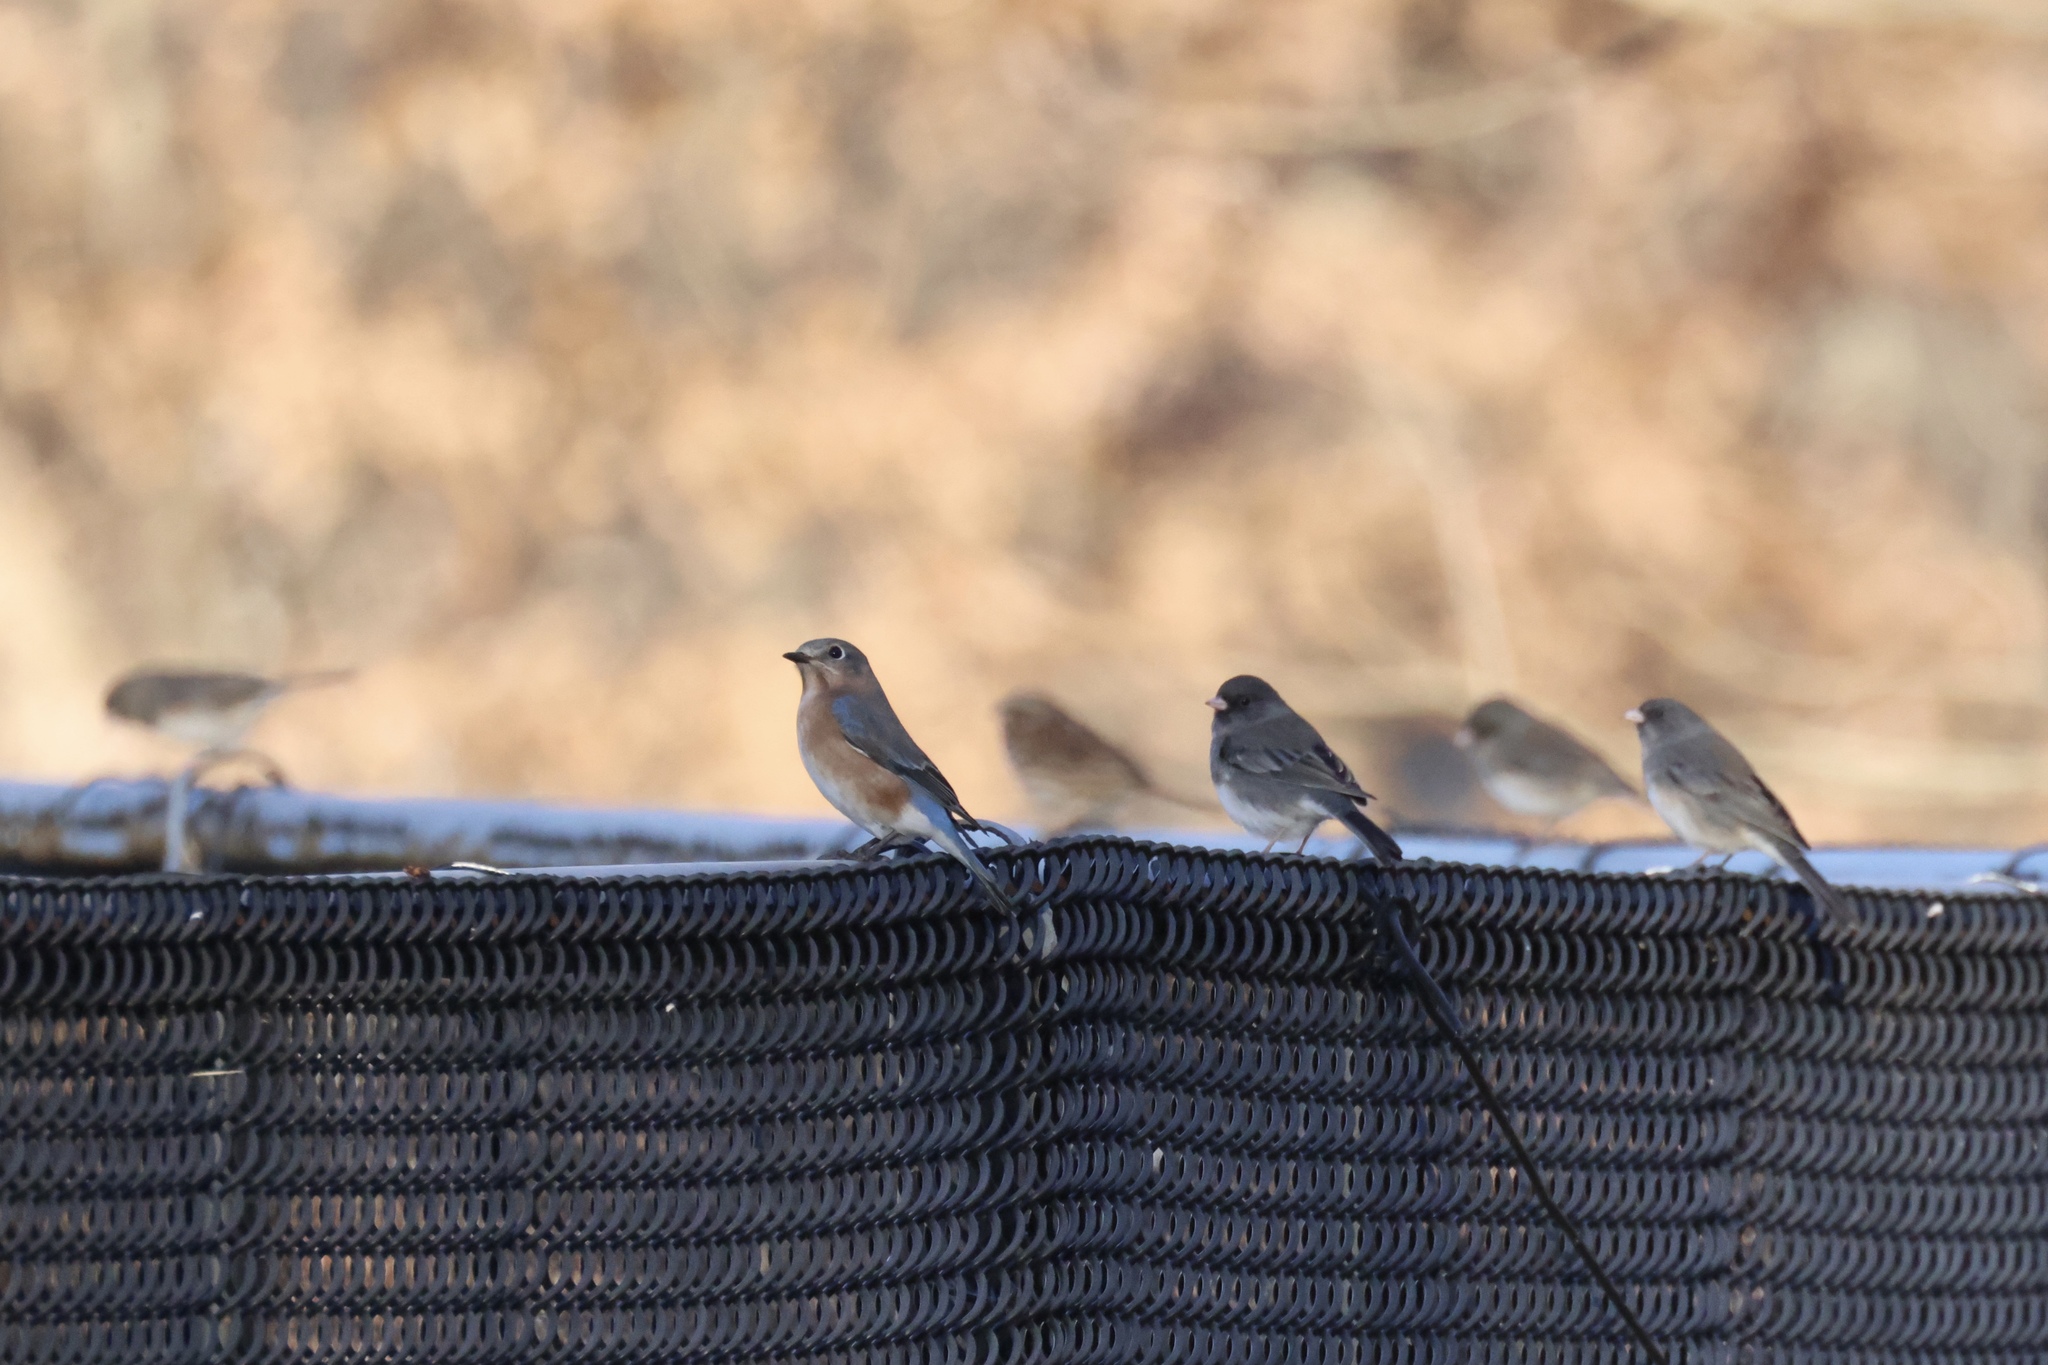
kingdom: Animalia
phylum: Chordata
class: Aves
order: Passeriformes
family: Turdidae
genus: Sialia
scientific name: Sialia sialis
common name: Eastern bluebird
